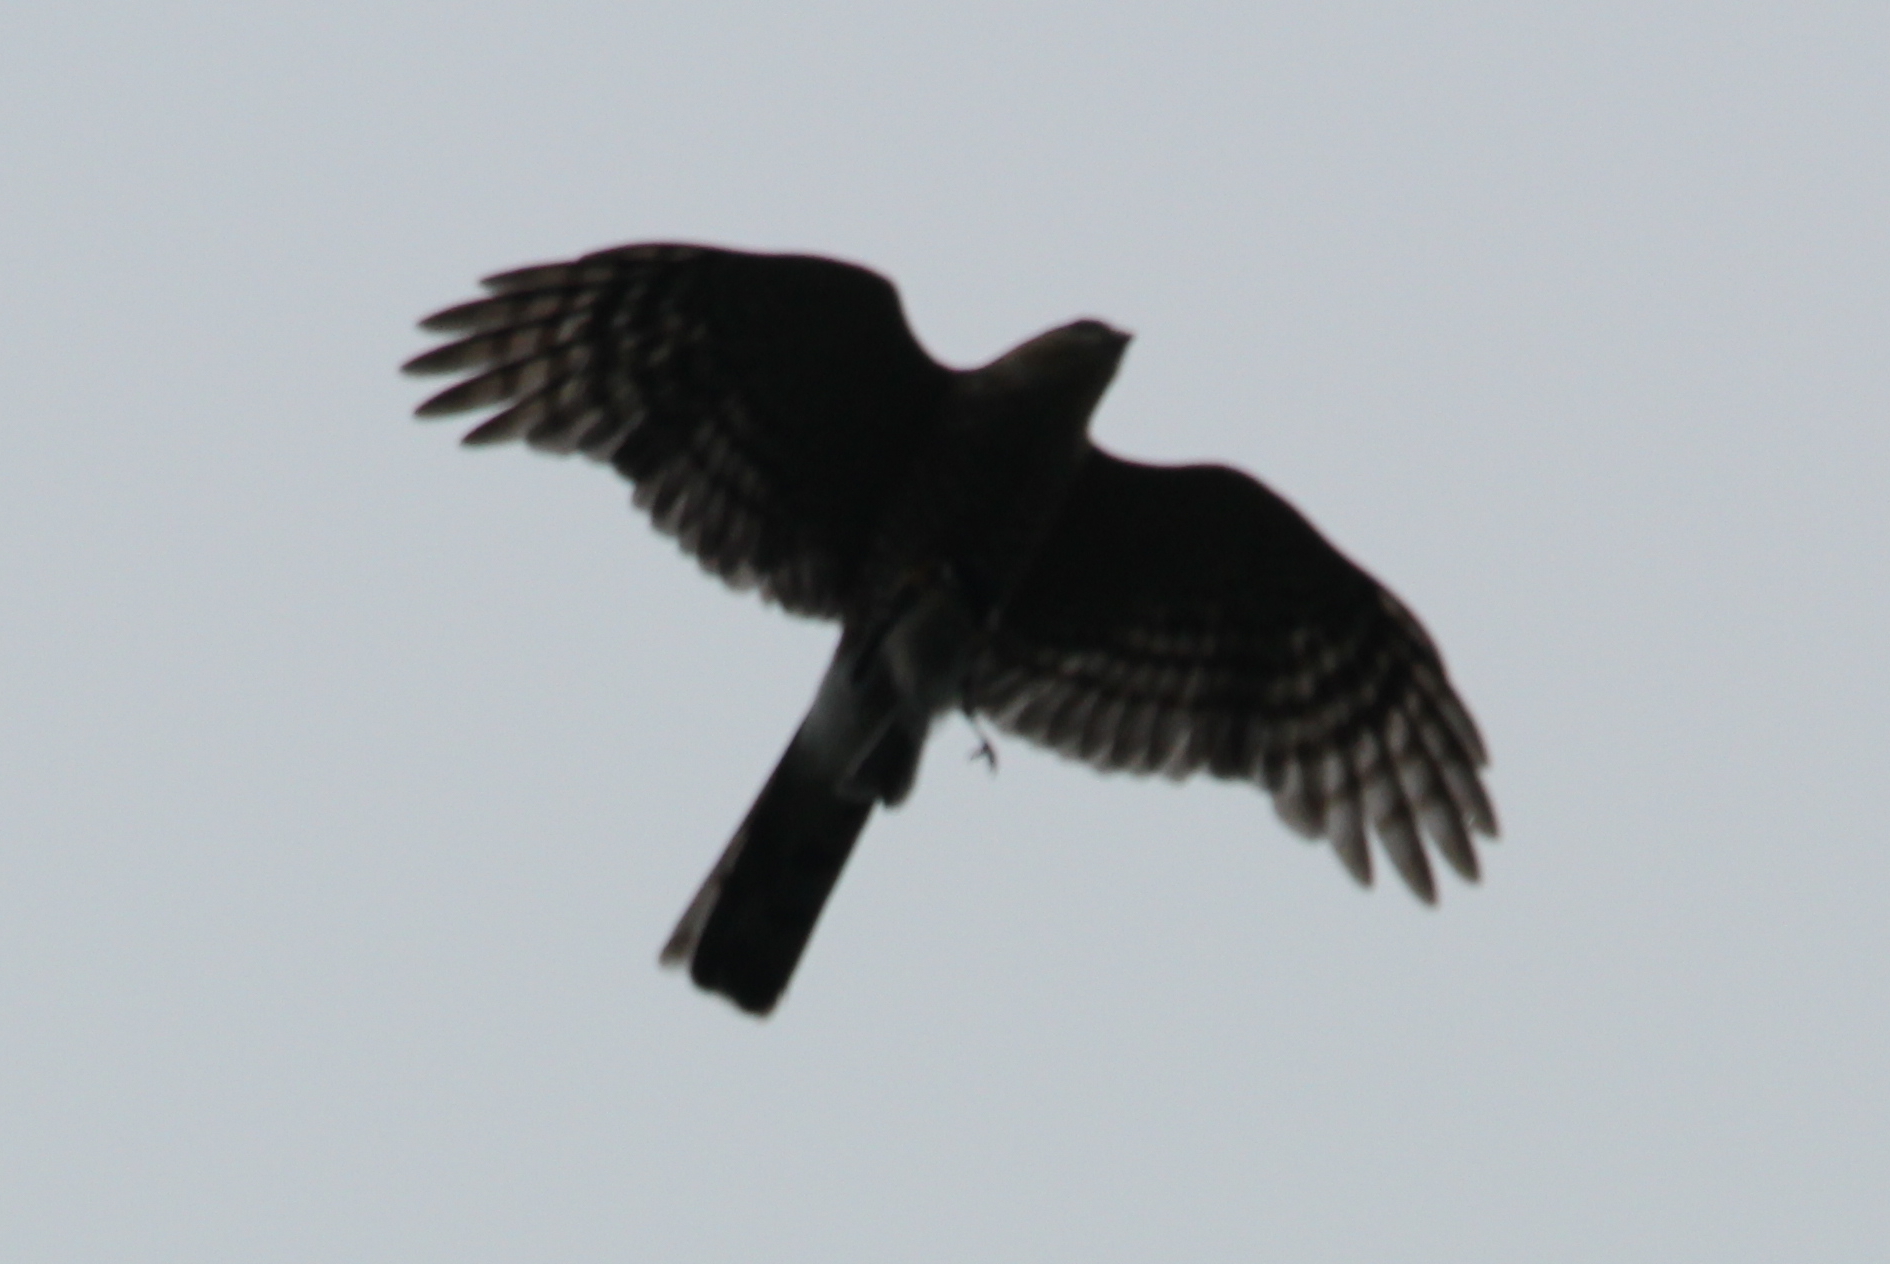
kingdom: Animalia
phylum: Chordata
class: Aves
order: Accipitriformes
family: Accipitridae
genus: Accipiter
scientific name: Accipiter striatus
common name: Sharp-shinned hawk
